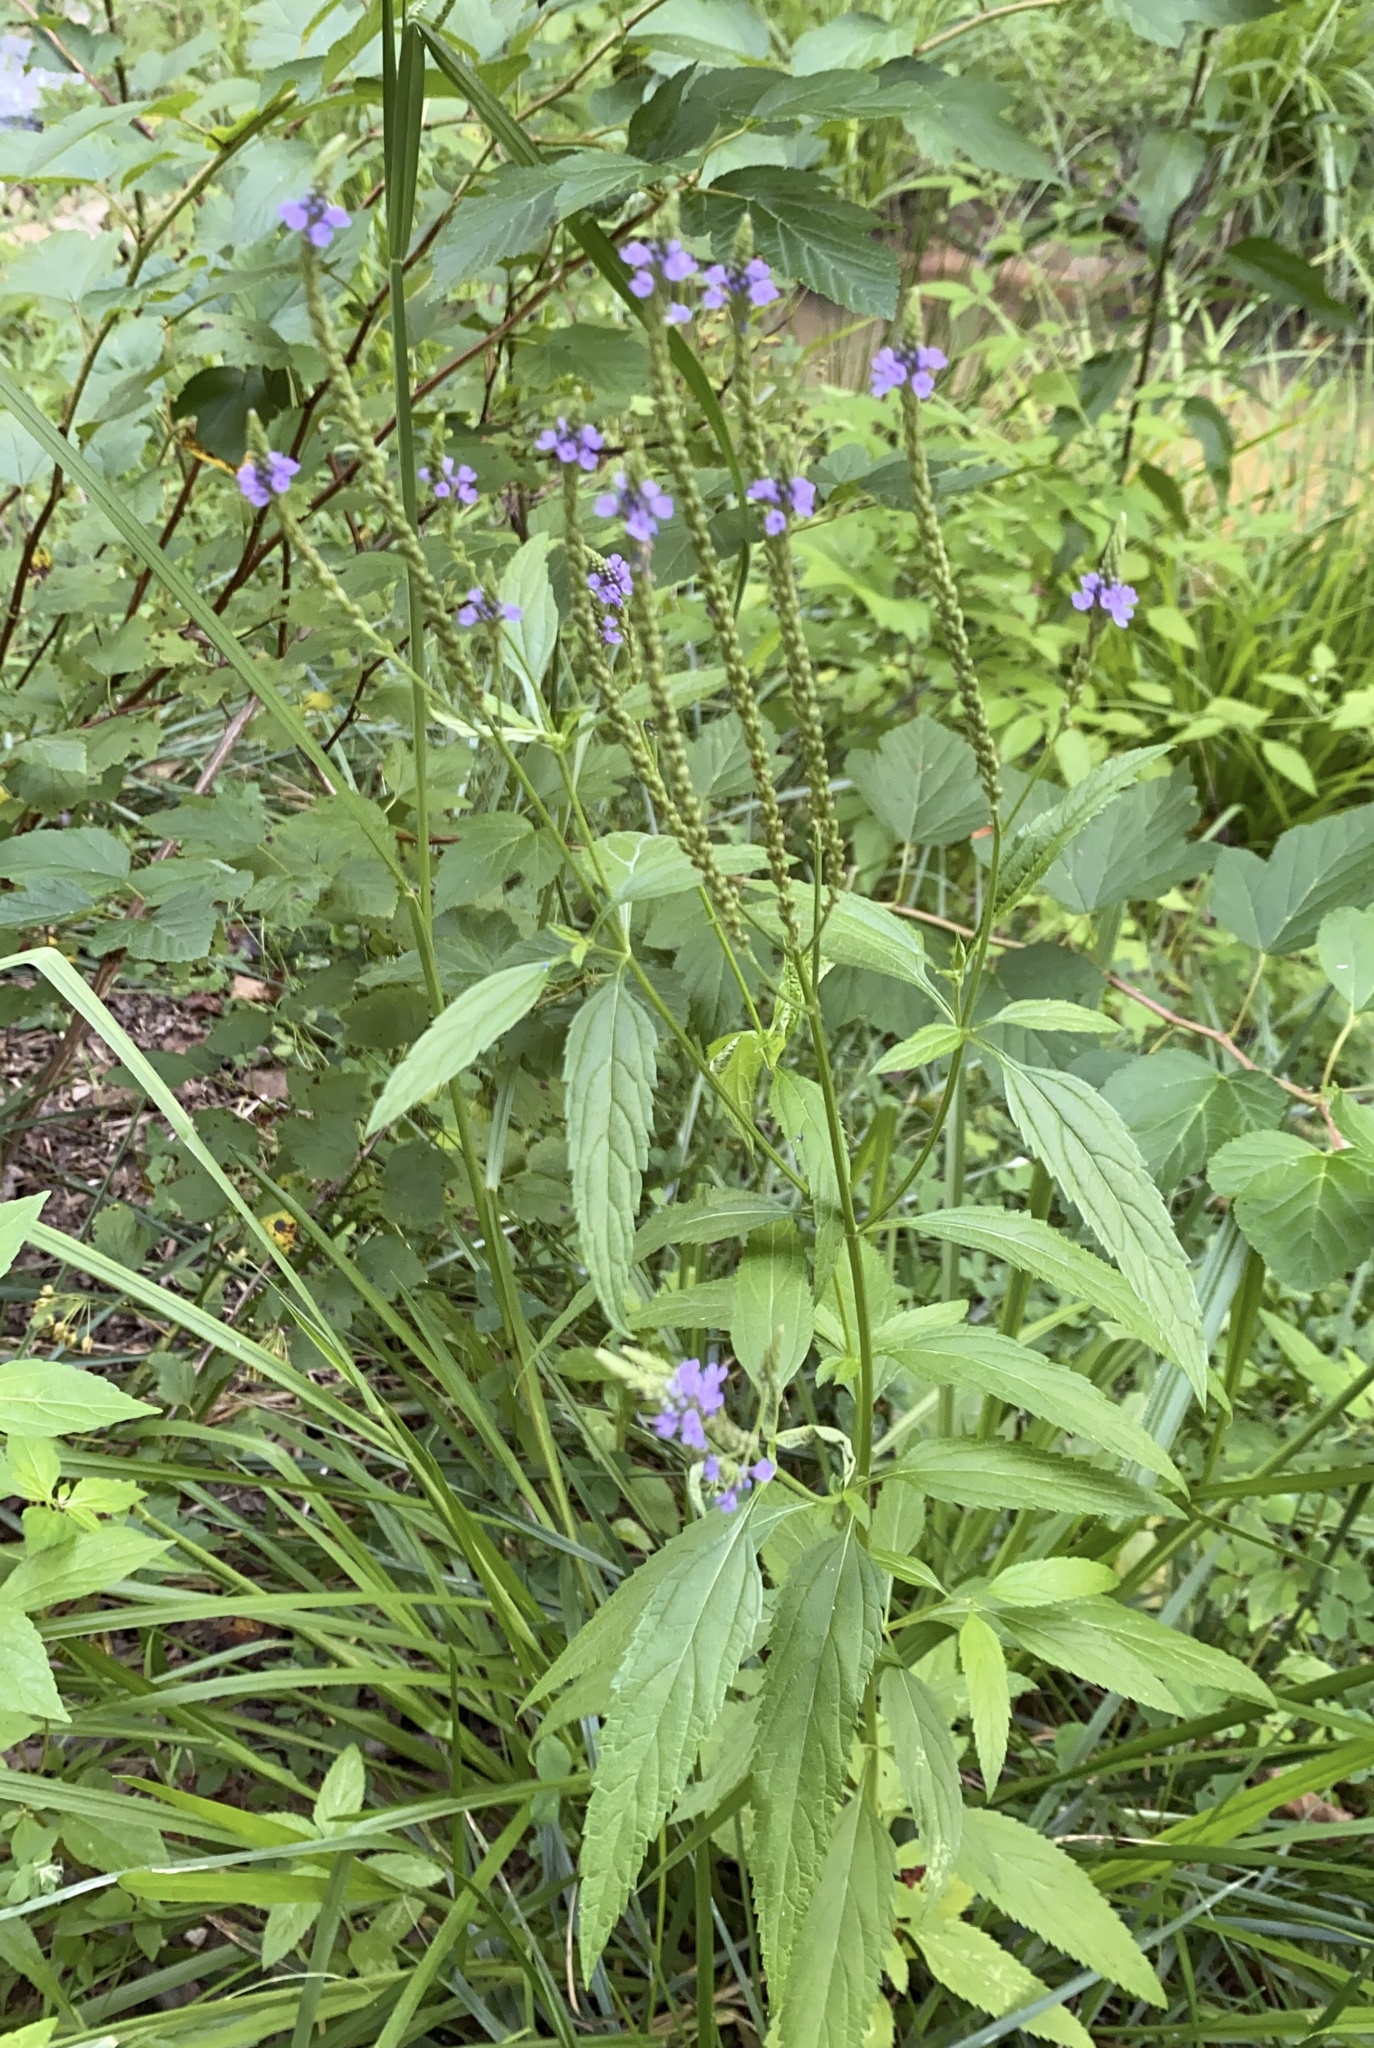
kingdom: Plantae
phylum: Tracheophyta
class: Magnoliopsida
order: Lamiales
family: Verbenaceae
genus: Verbena
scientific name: Verbena hastata
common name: American blue vervain
